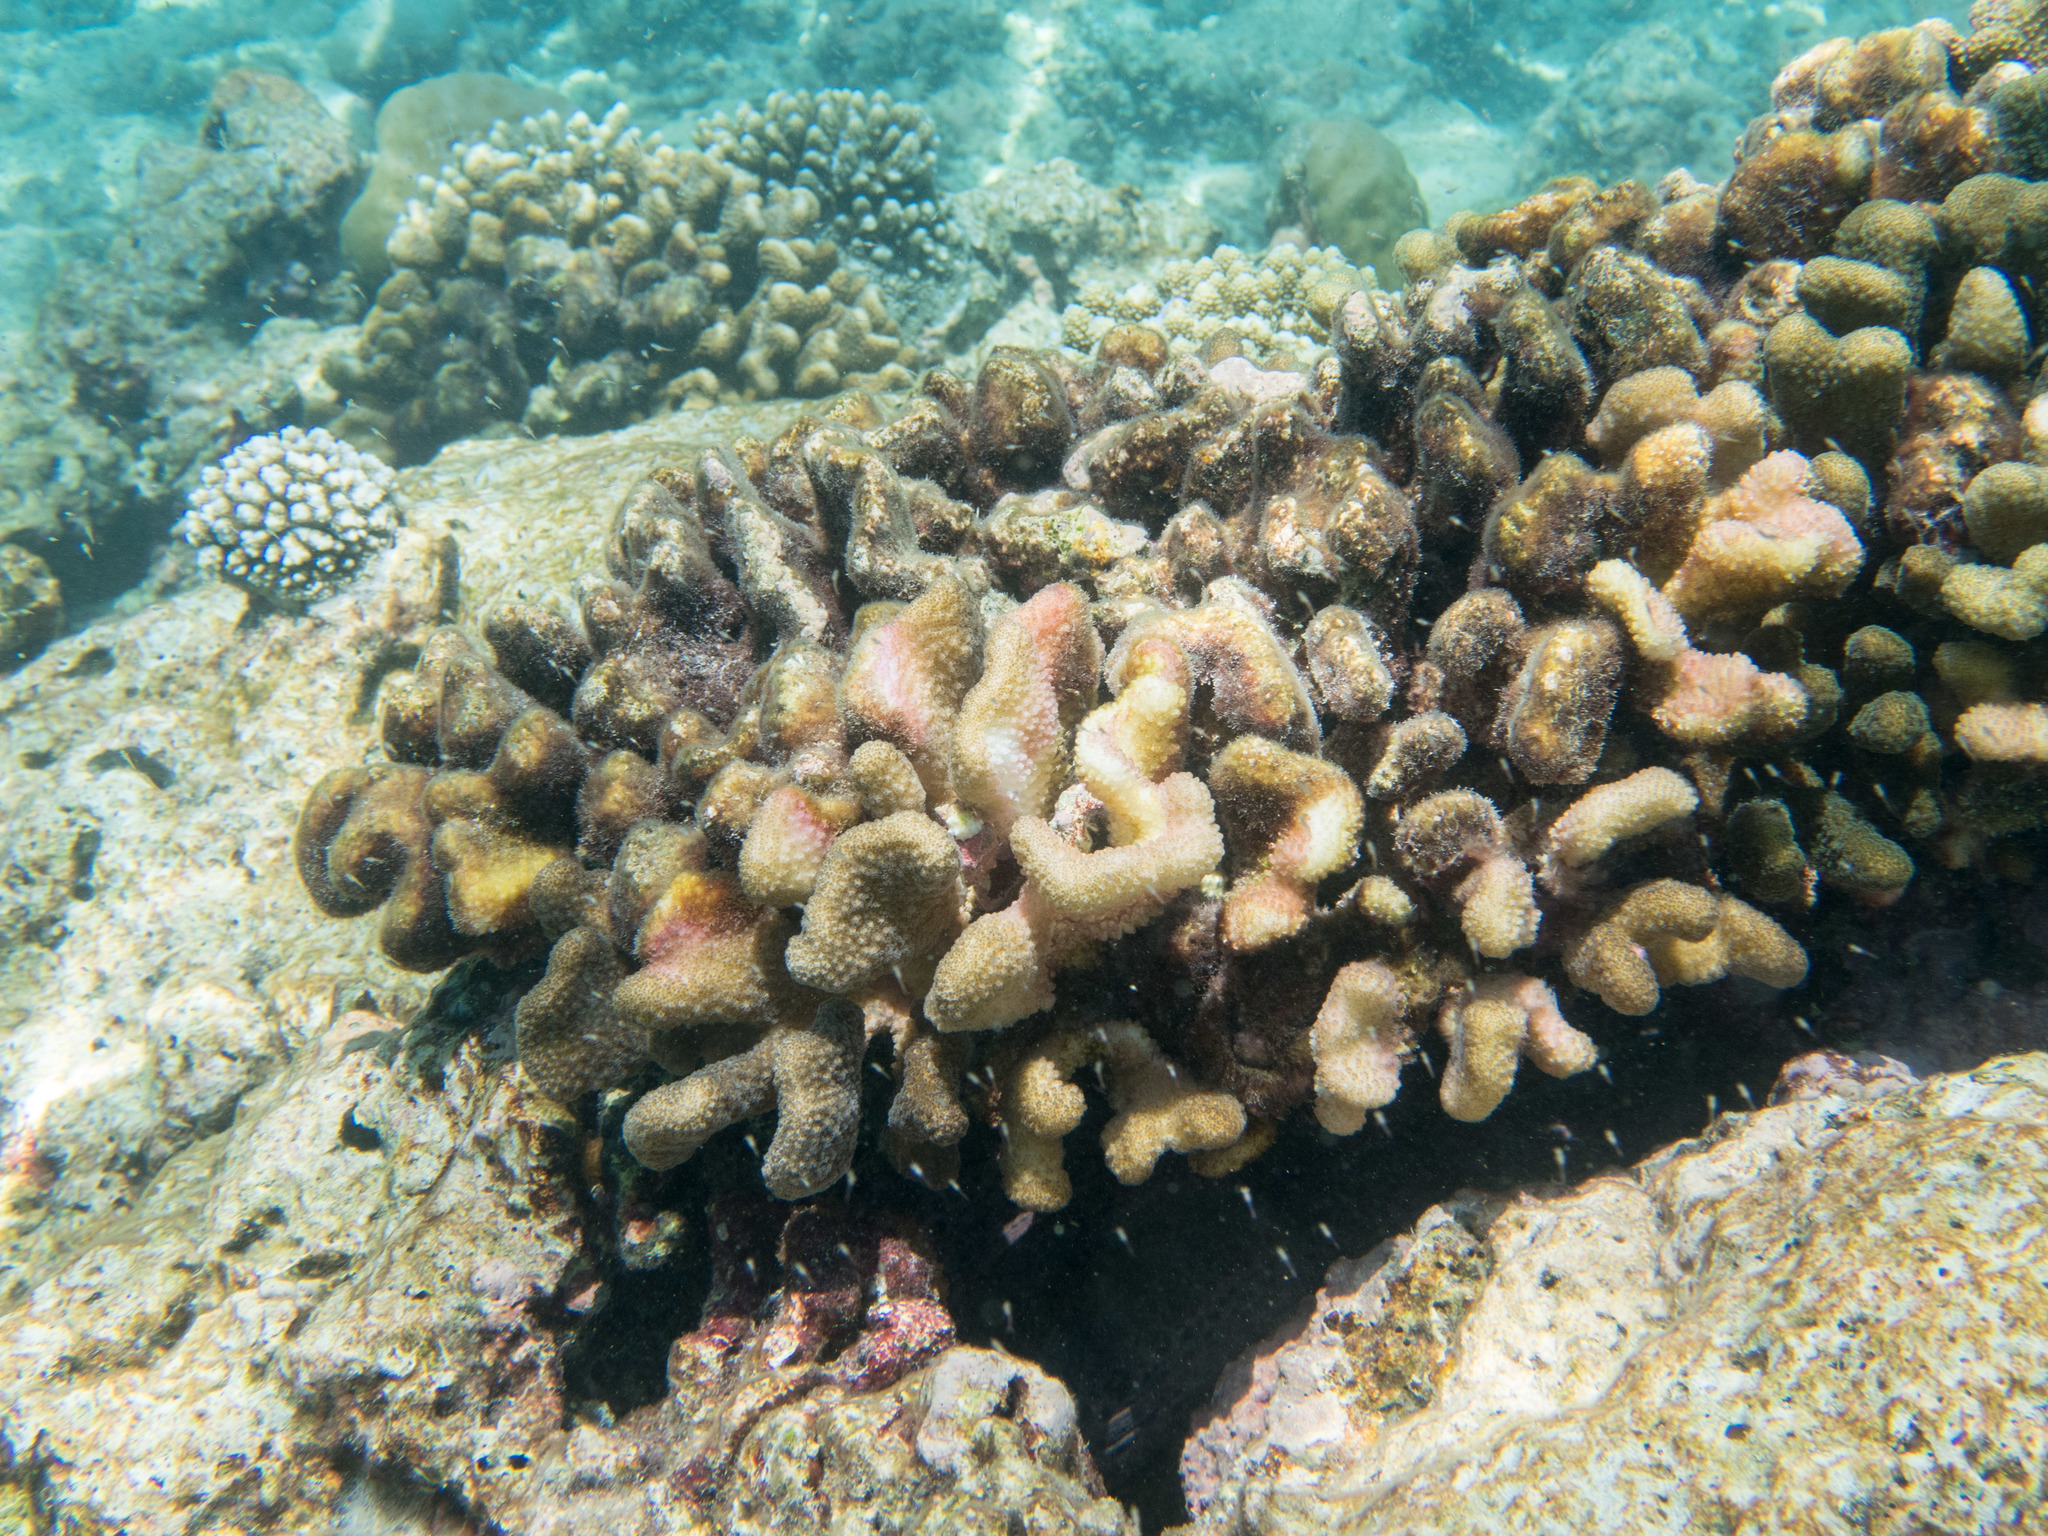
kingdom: Animalia
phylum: Cnidaria
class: Anthozoa
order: Scleractinia
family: Pocilloporidae
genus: Pocillopora
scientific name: Pocillopora verrucosa
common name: Cauliflower coral
